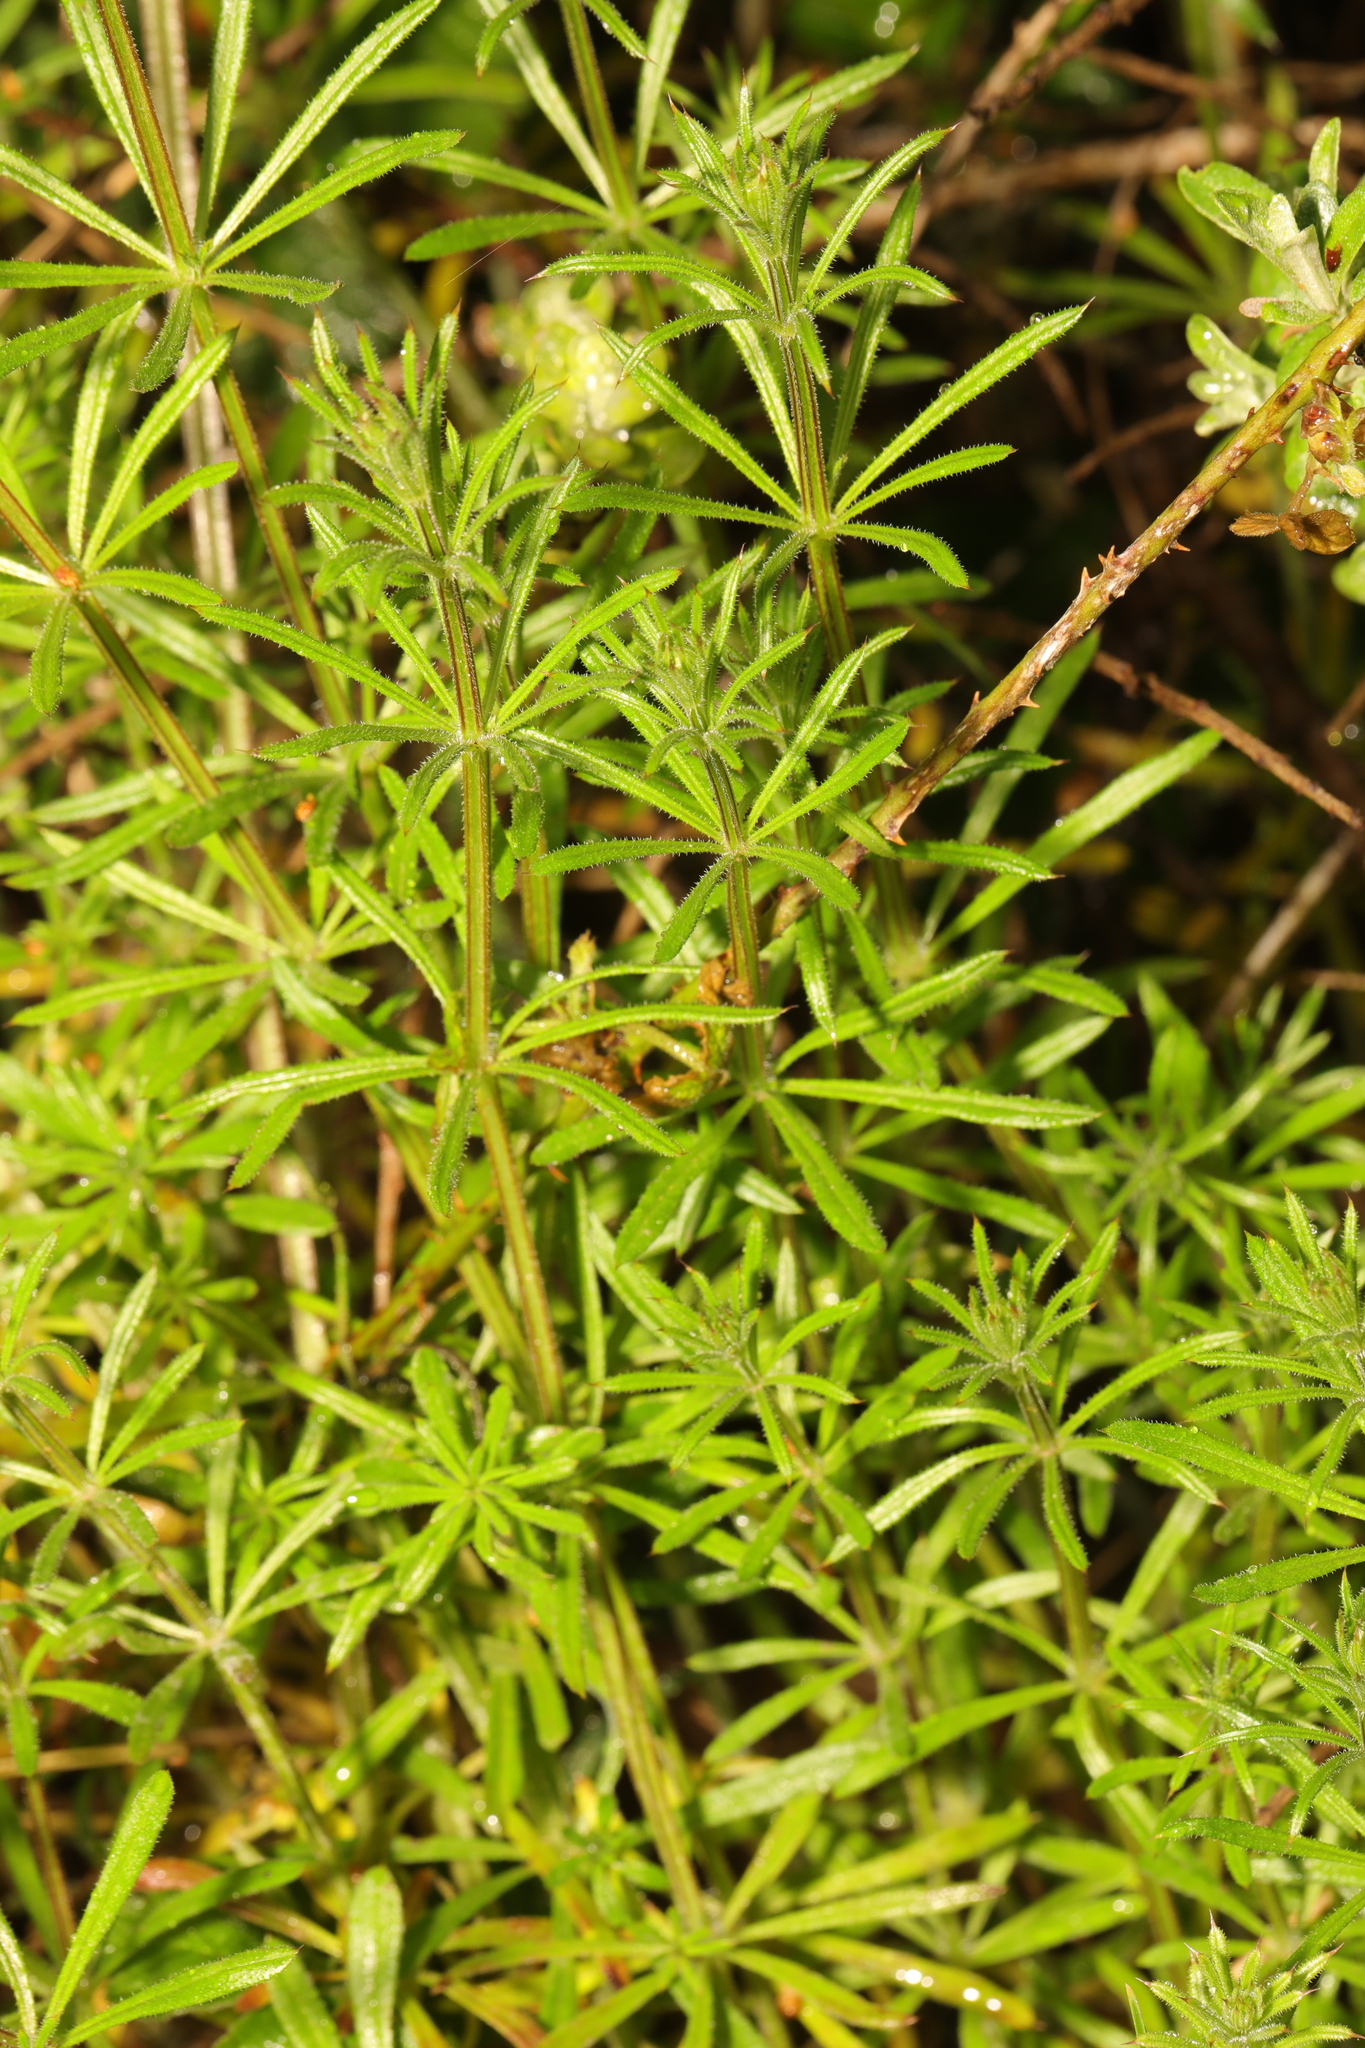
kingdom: Plantae
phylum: Tracheophyta
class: Magnoliopsida
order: Gentianales
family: Rubiaceae
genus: Galium
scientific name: Galium aparine
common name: Cleavers
